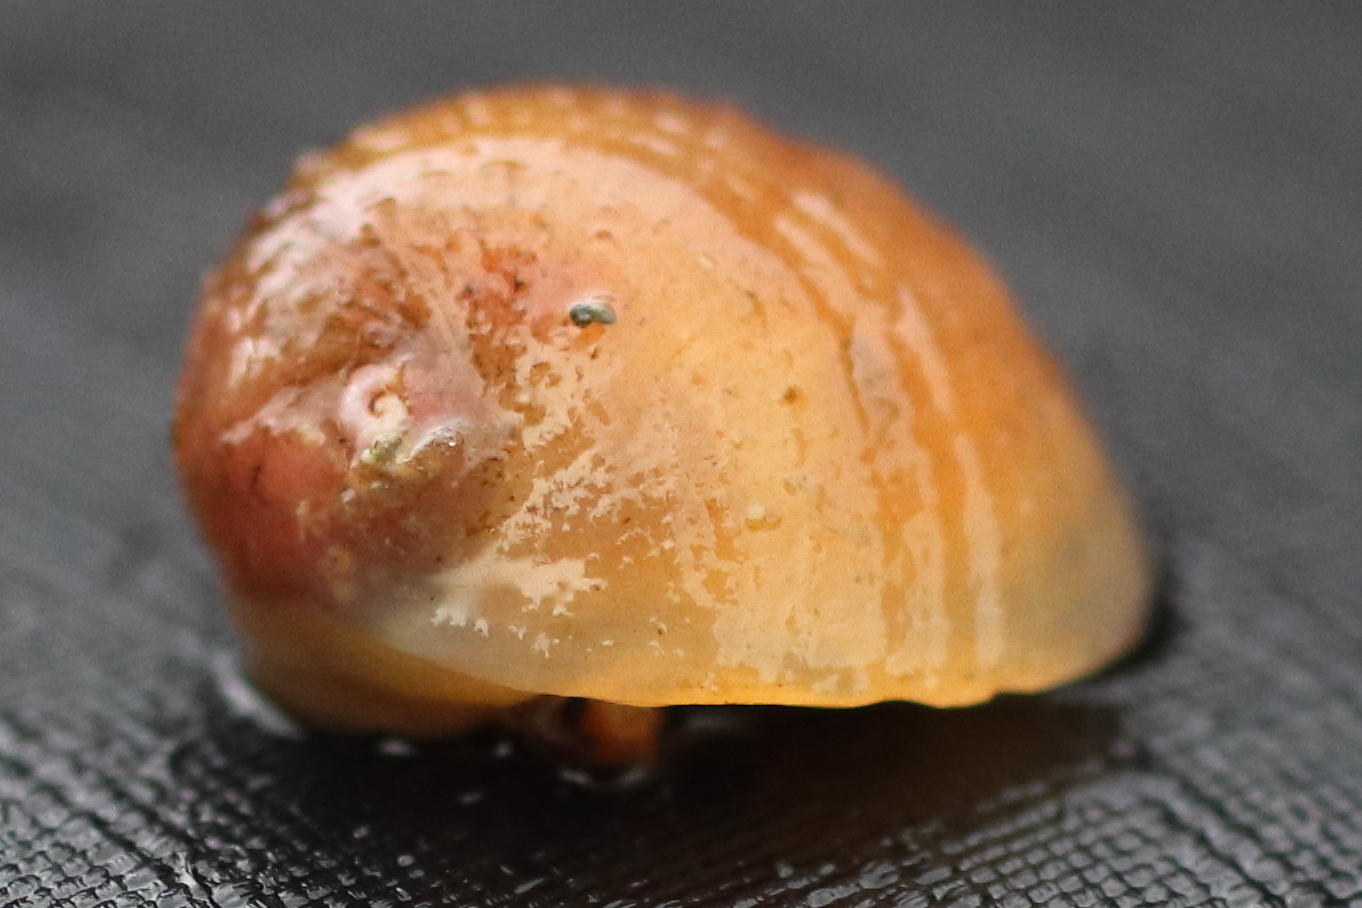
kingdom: Animalia
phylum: Mollusca
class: Gastropoda
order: Littorinimorpha
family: Velutinidae
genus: Velutina
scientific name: Velutina velutina
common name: Smooth lamellaria
